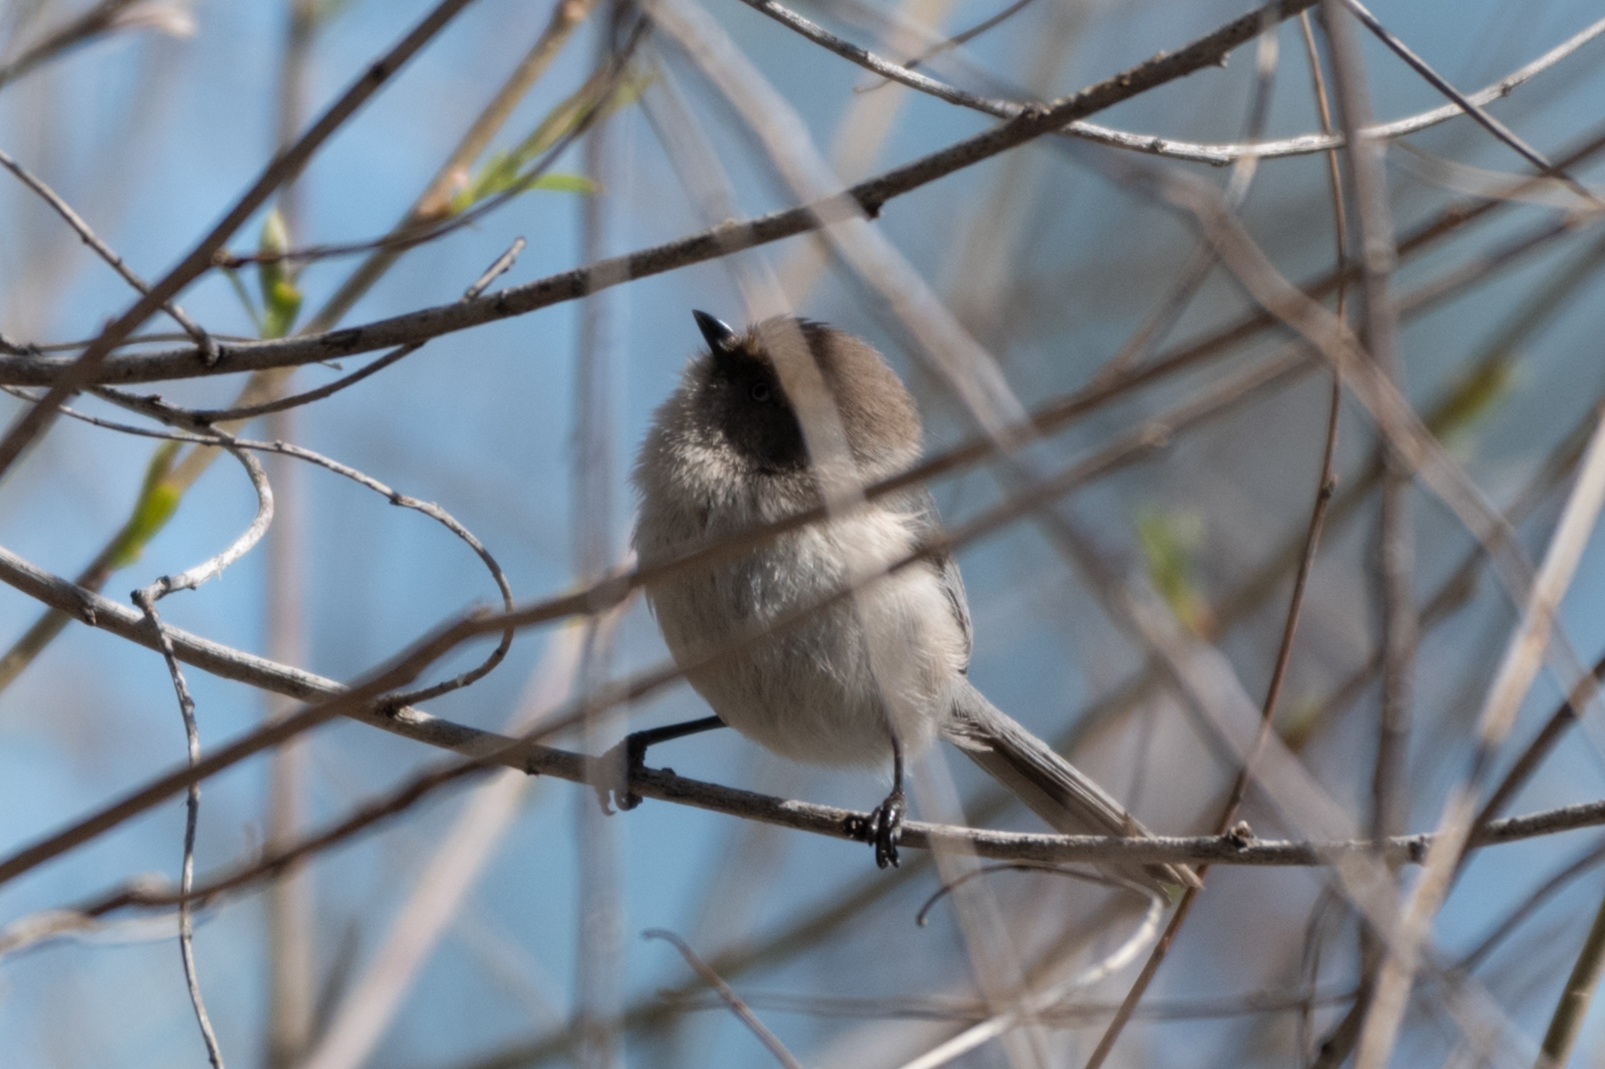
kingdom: Animalia
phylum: Chordata
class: Aves
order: Passeriformes
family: Aegithalidae
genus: Psaltriparus
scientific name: Psaltriparus minimus
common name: American bushtit
